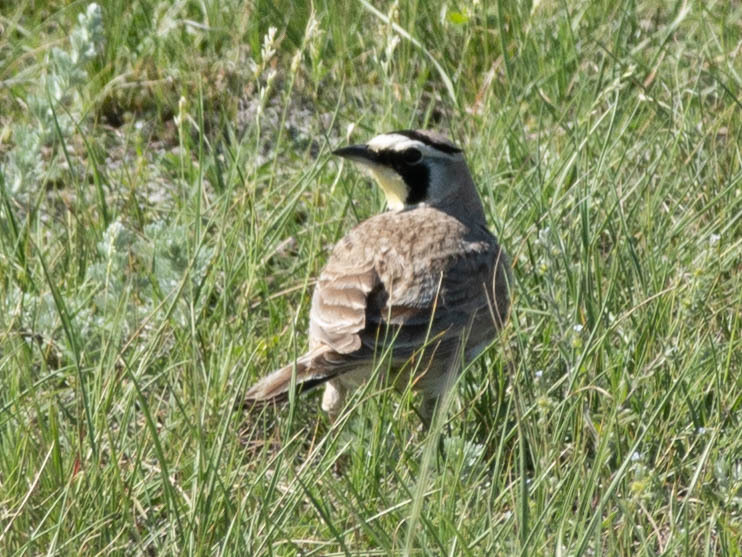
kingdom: Animalia
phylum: Chordata
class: Aves
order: Passeriformes
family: Alaudidae
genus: Eremophila
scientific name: Eremophila alpestris
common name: Horned lark
